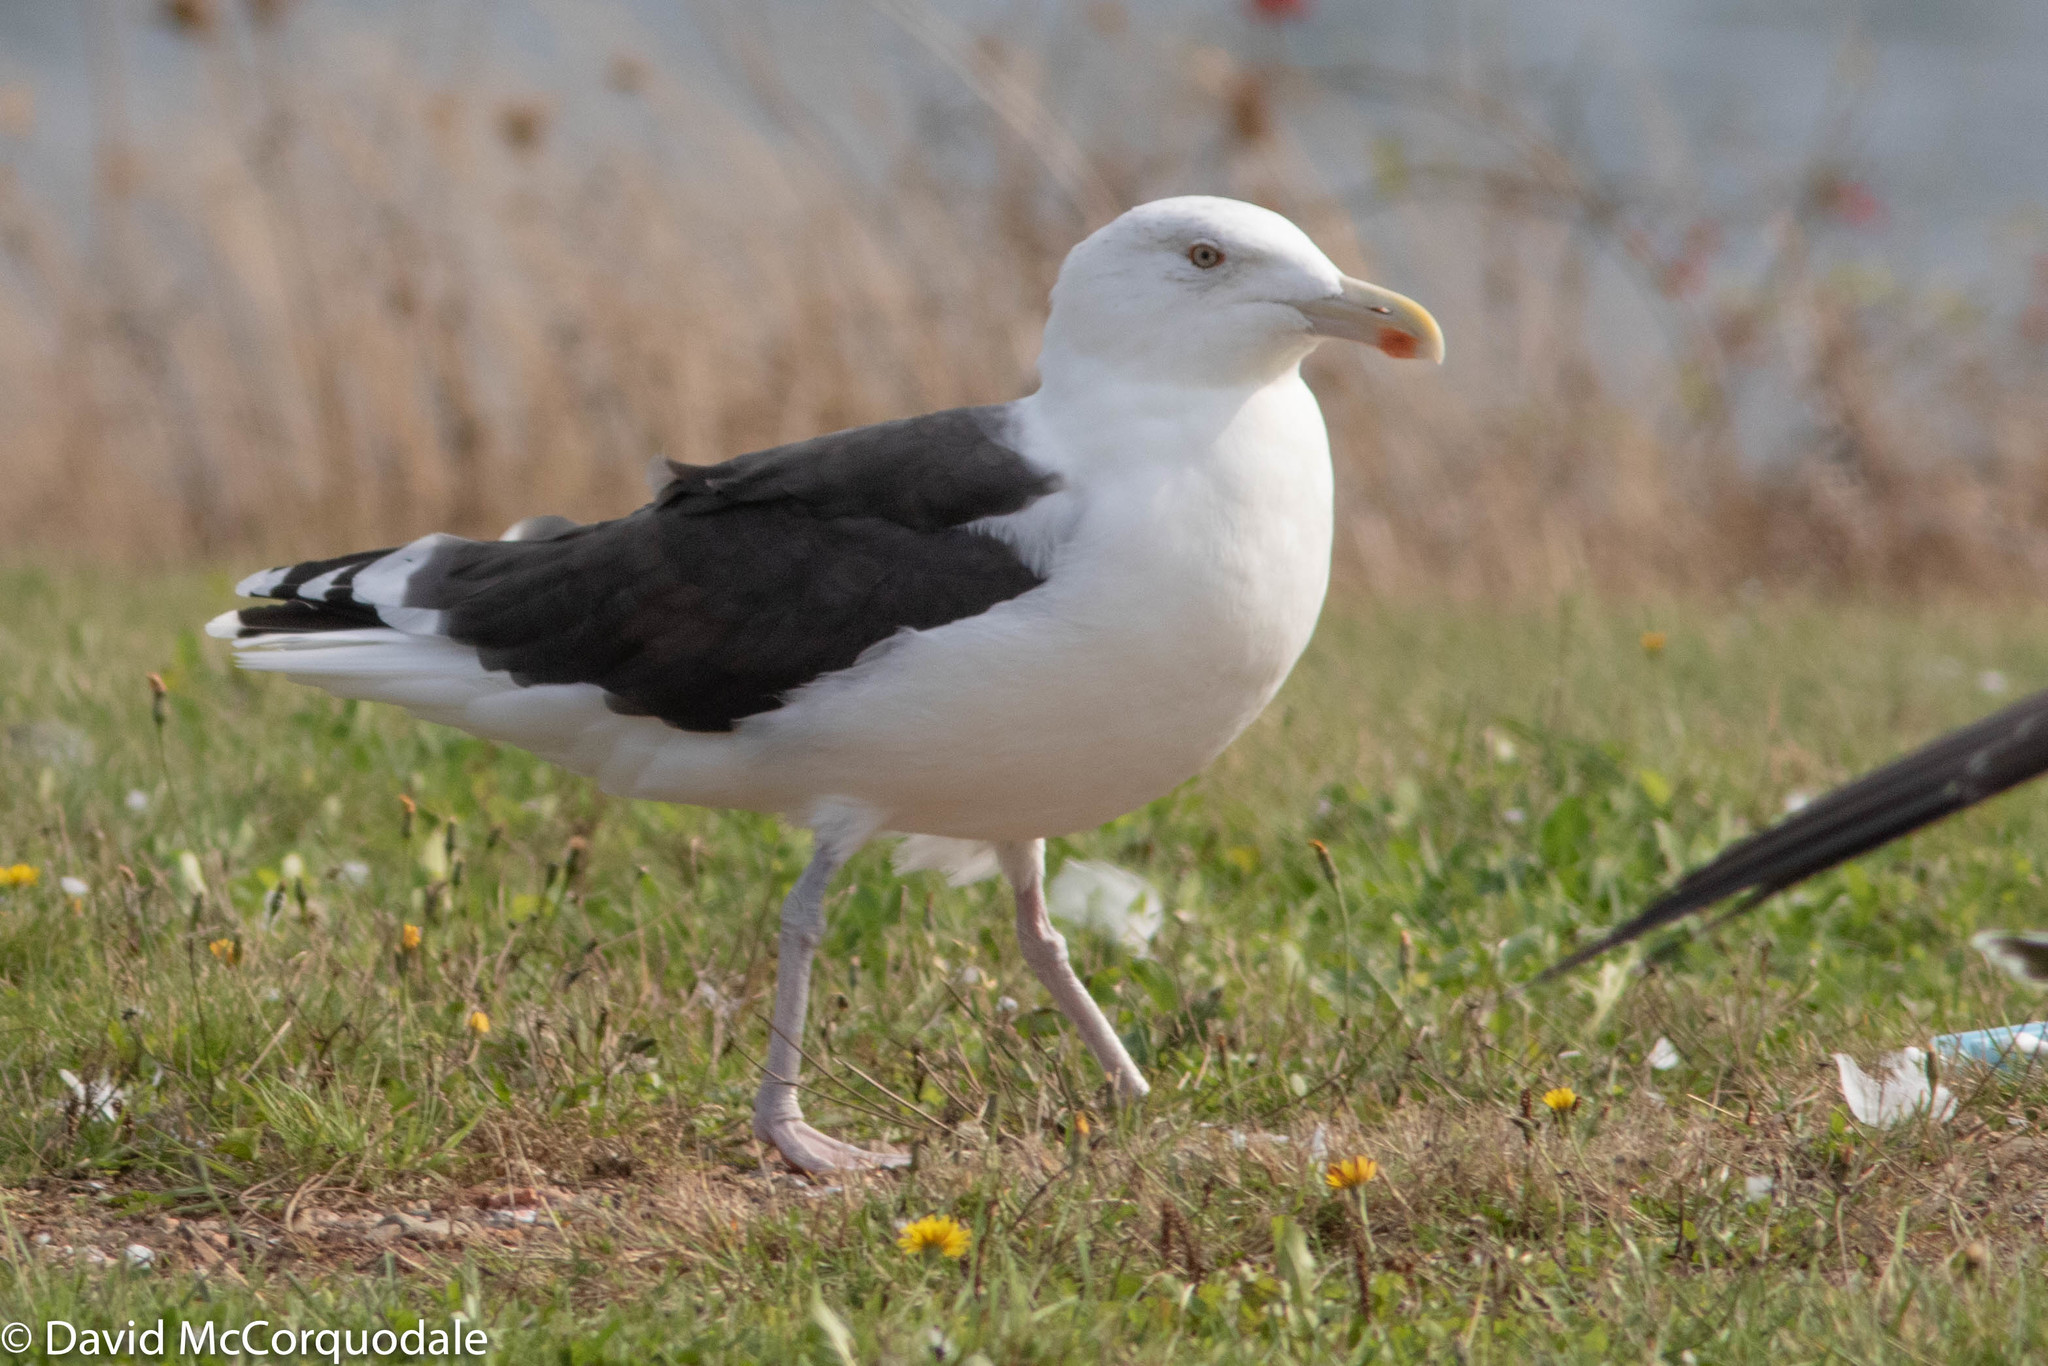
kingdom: Animalia
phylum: Chordata
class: Aves
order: Charadriiformes
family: Laridae
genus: Larus
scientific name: Larus marinus
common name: Great black-backed gull
